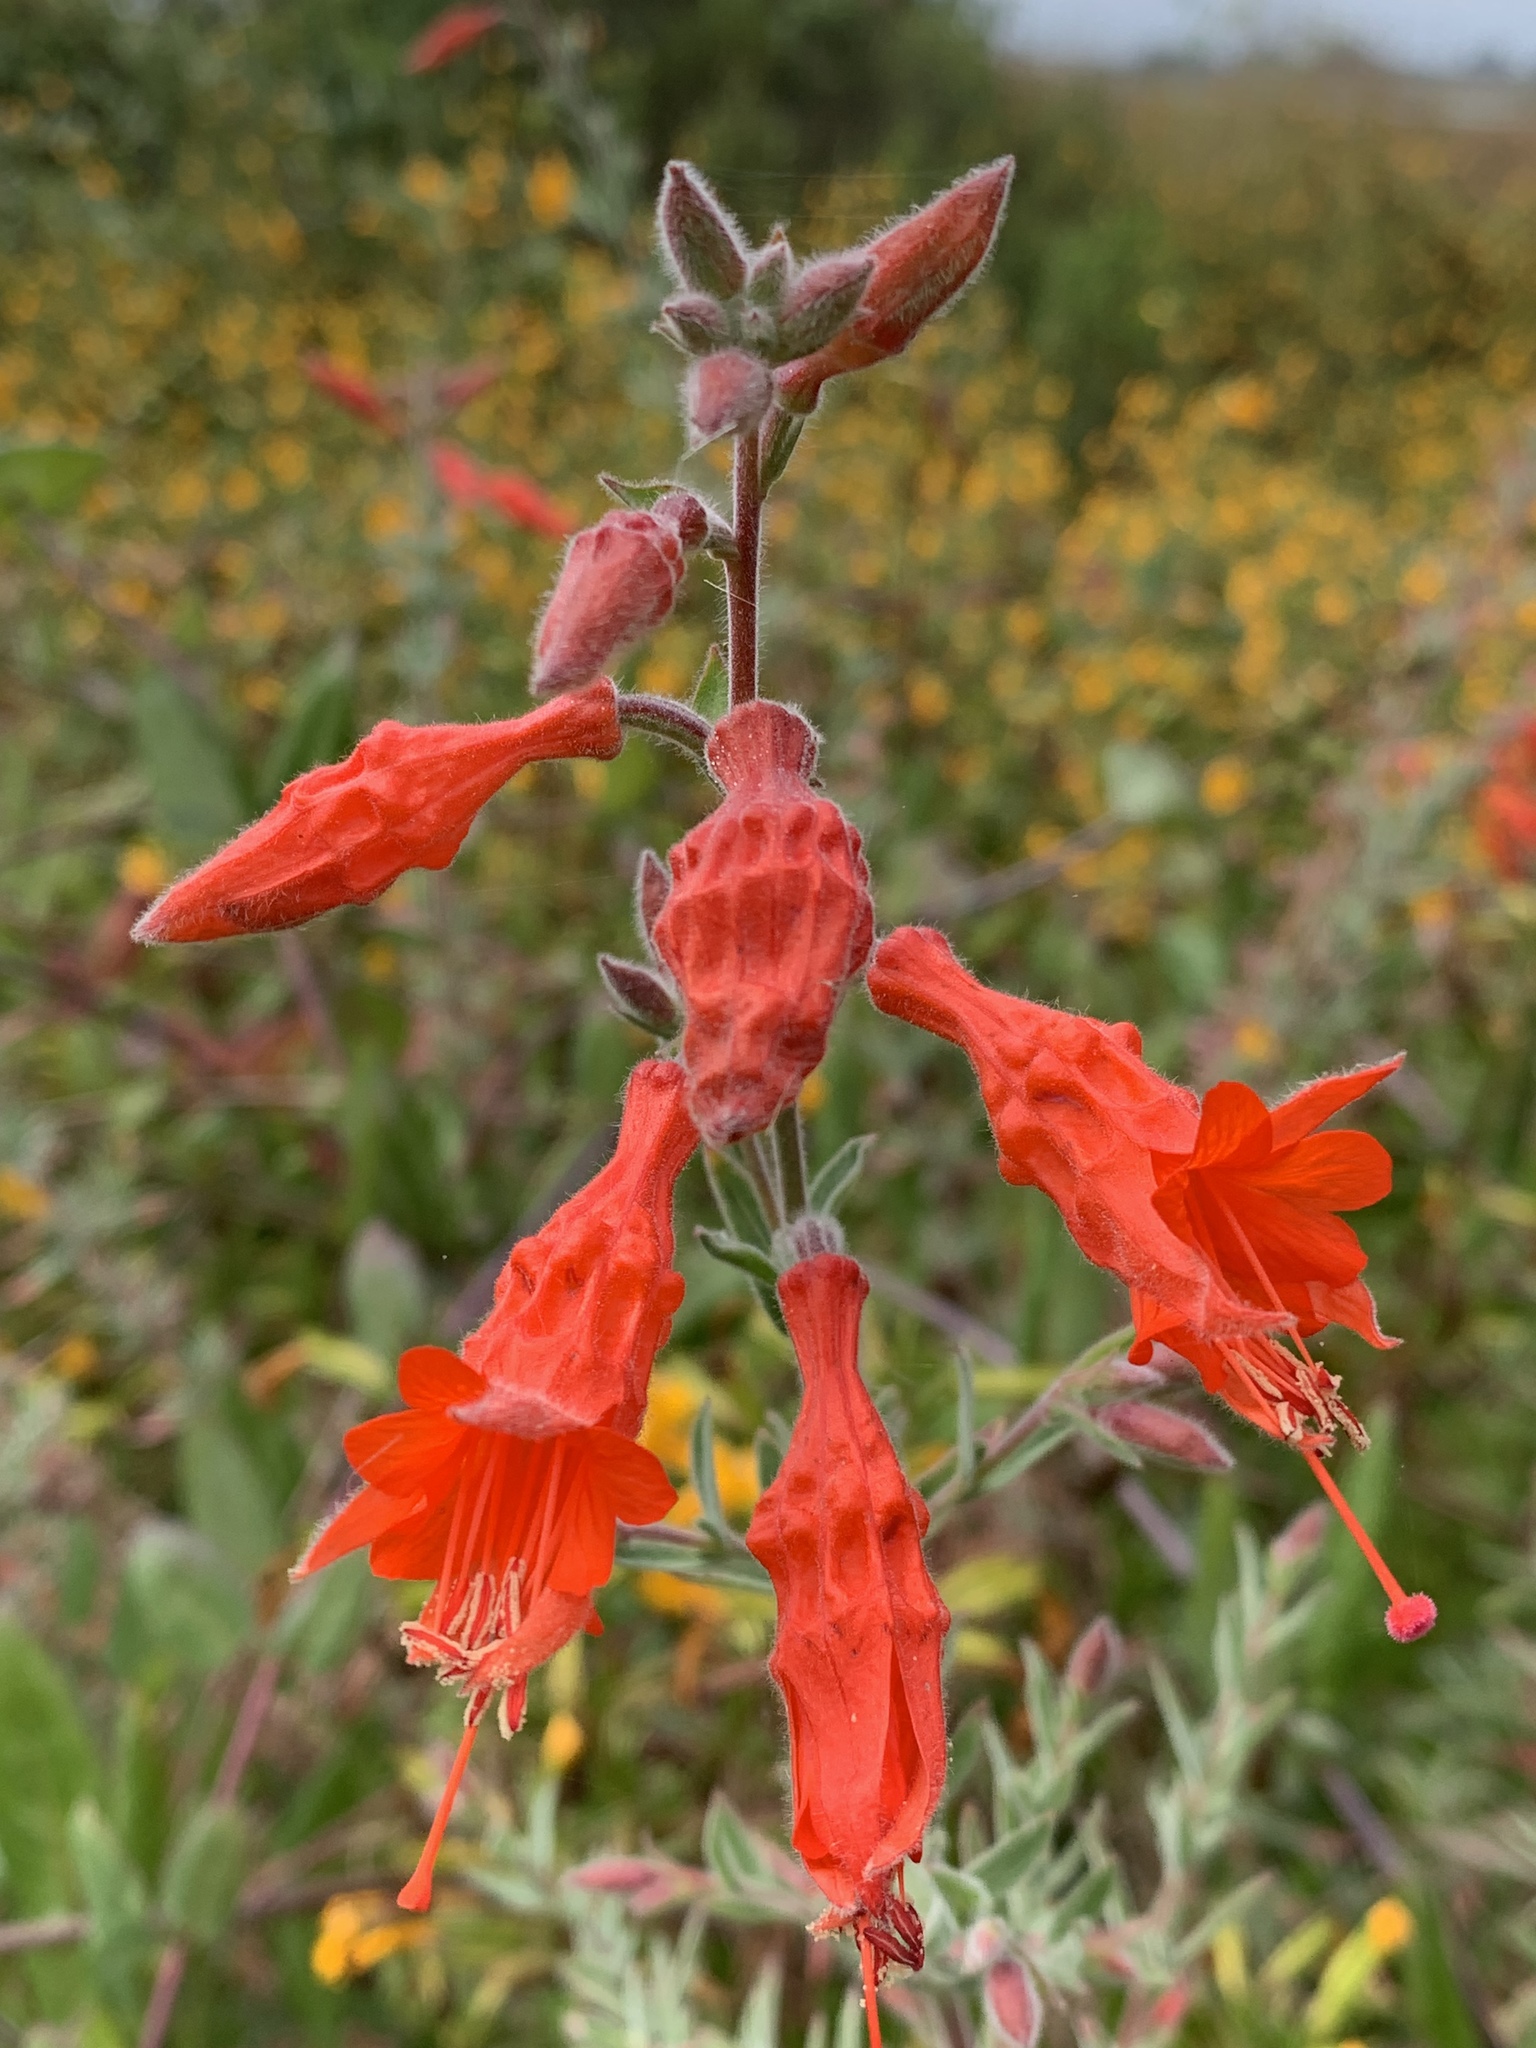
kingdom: Plantae
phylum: Tracheophyta
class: Magnoliopsida
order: Myrtales
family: Onagraceae
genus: Epilobium
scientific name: Epilobium canum
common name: California-fuchsia
